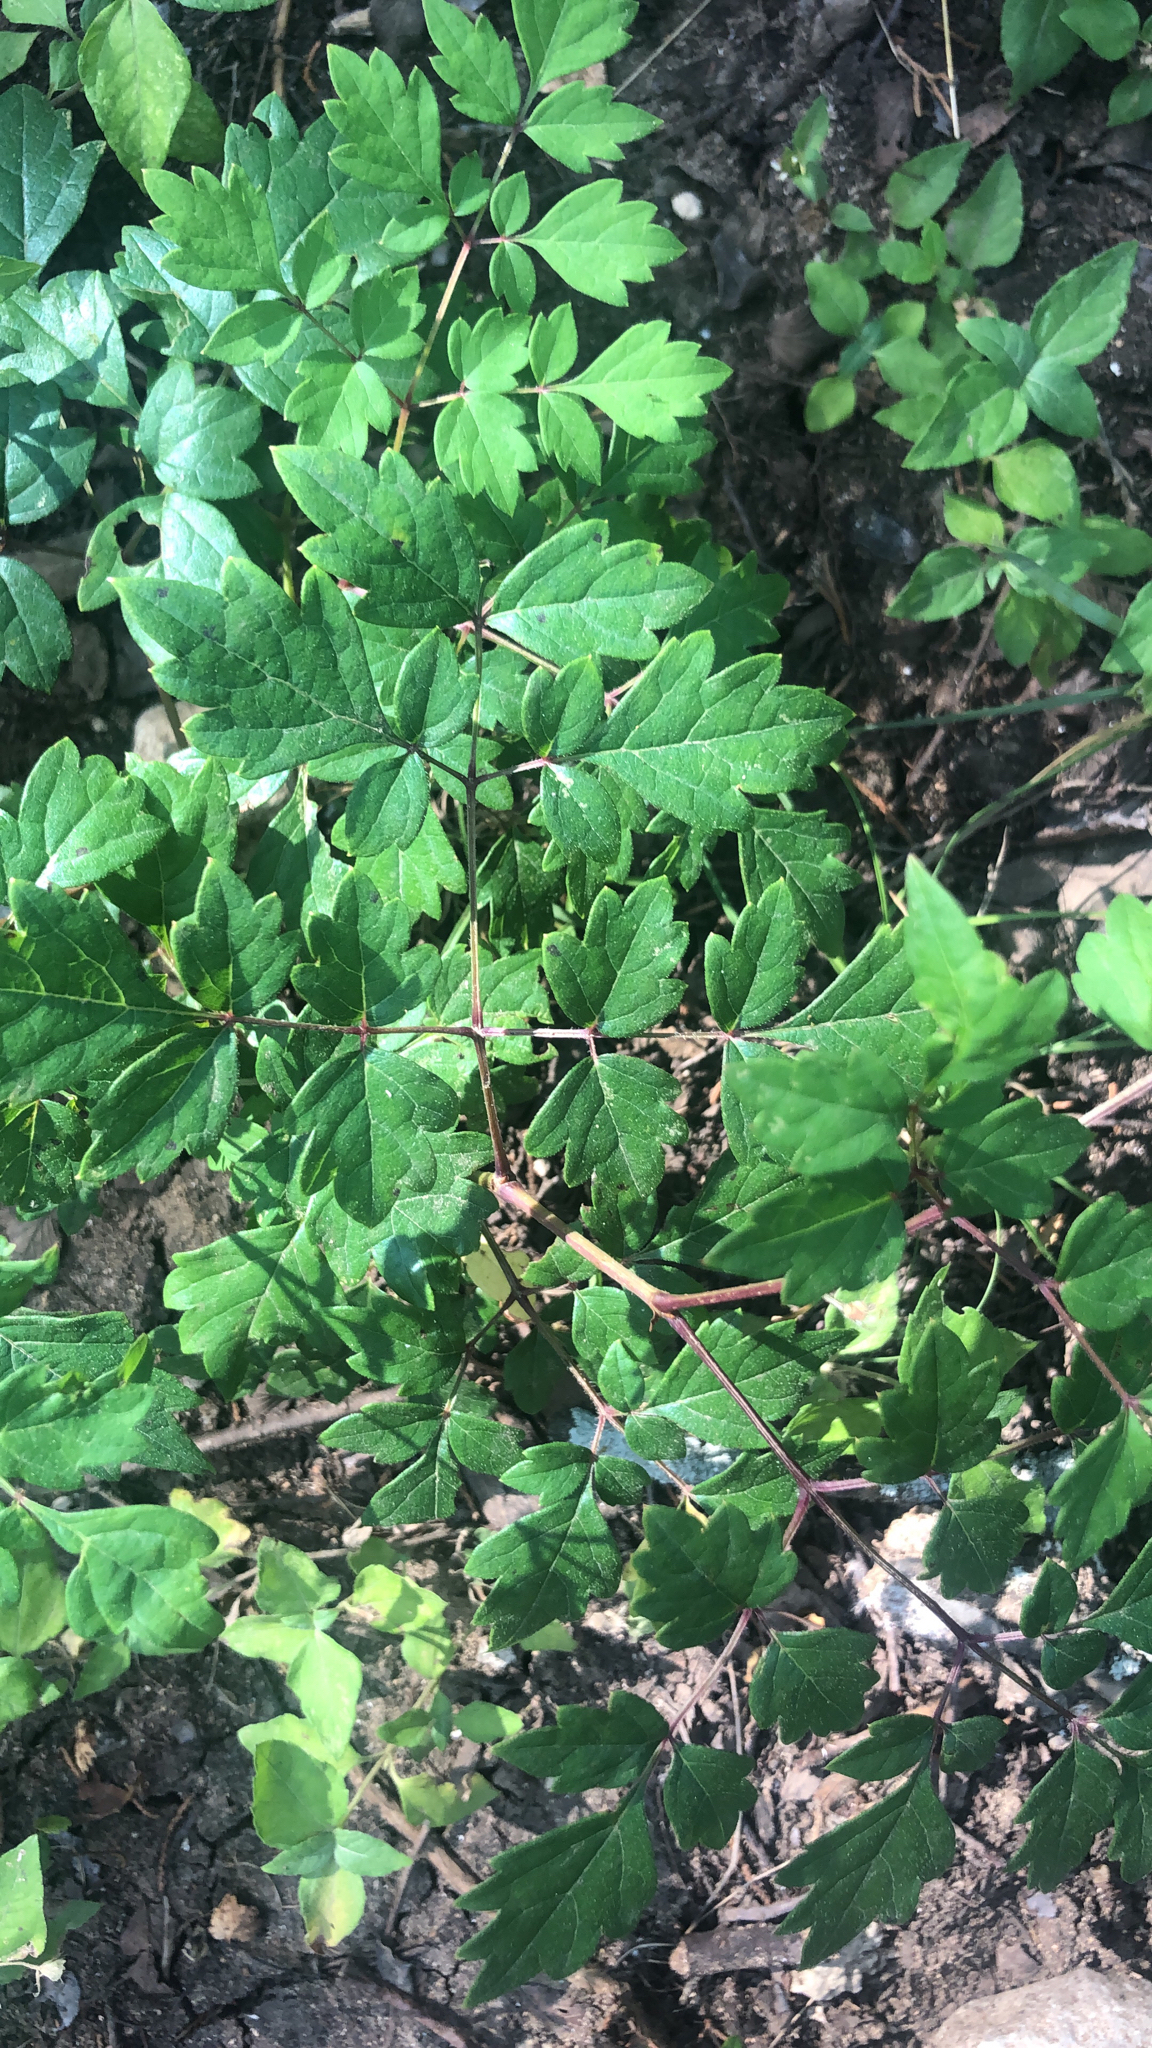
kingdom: Plantae
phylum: Tracheophyta
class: Magnoliopsida
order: Vitales
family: Vitaceae
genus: Nekemias
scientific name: Nekemias arborea
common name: Peppervine
